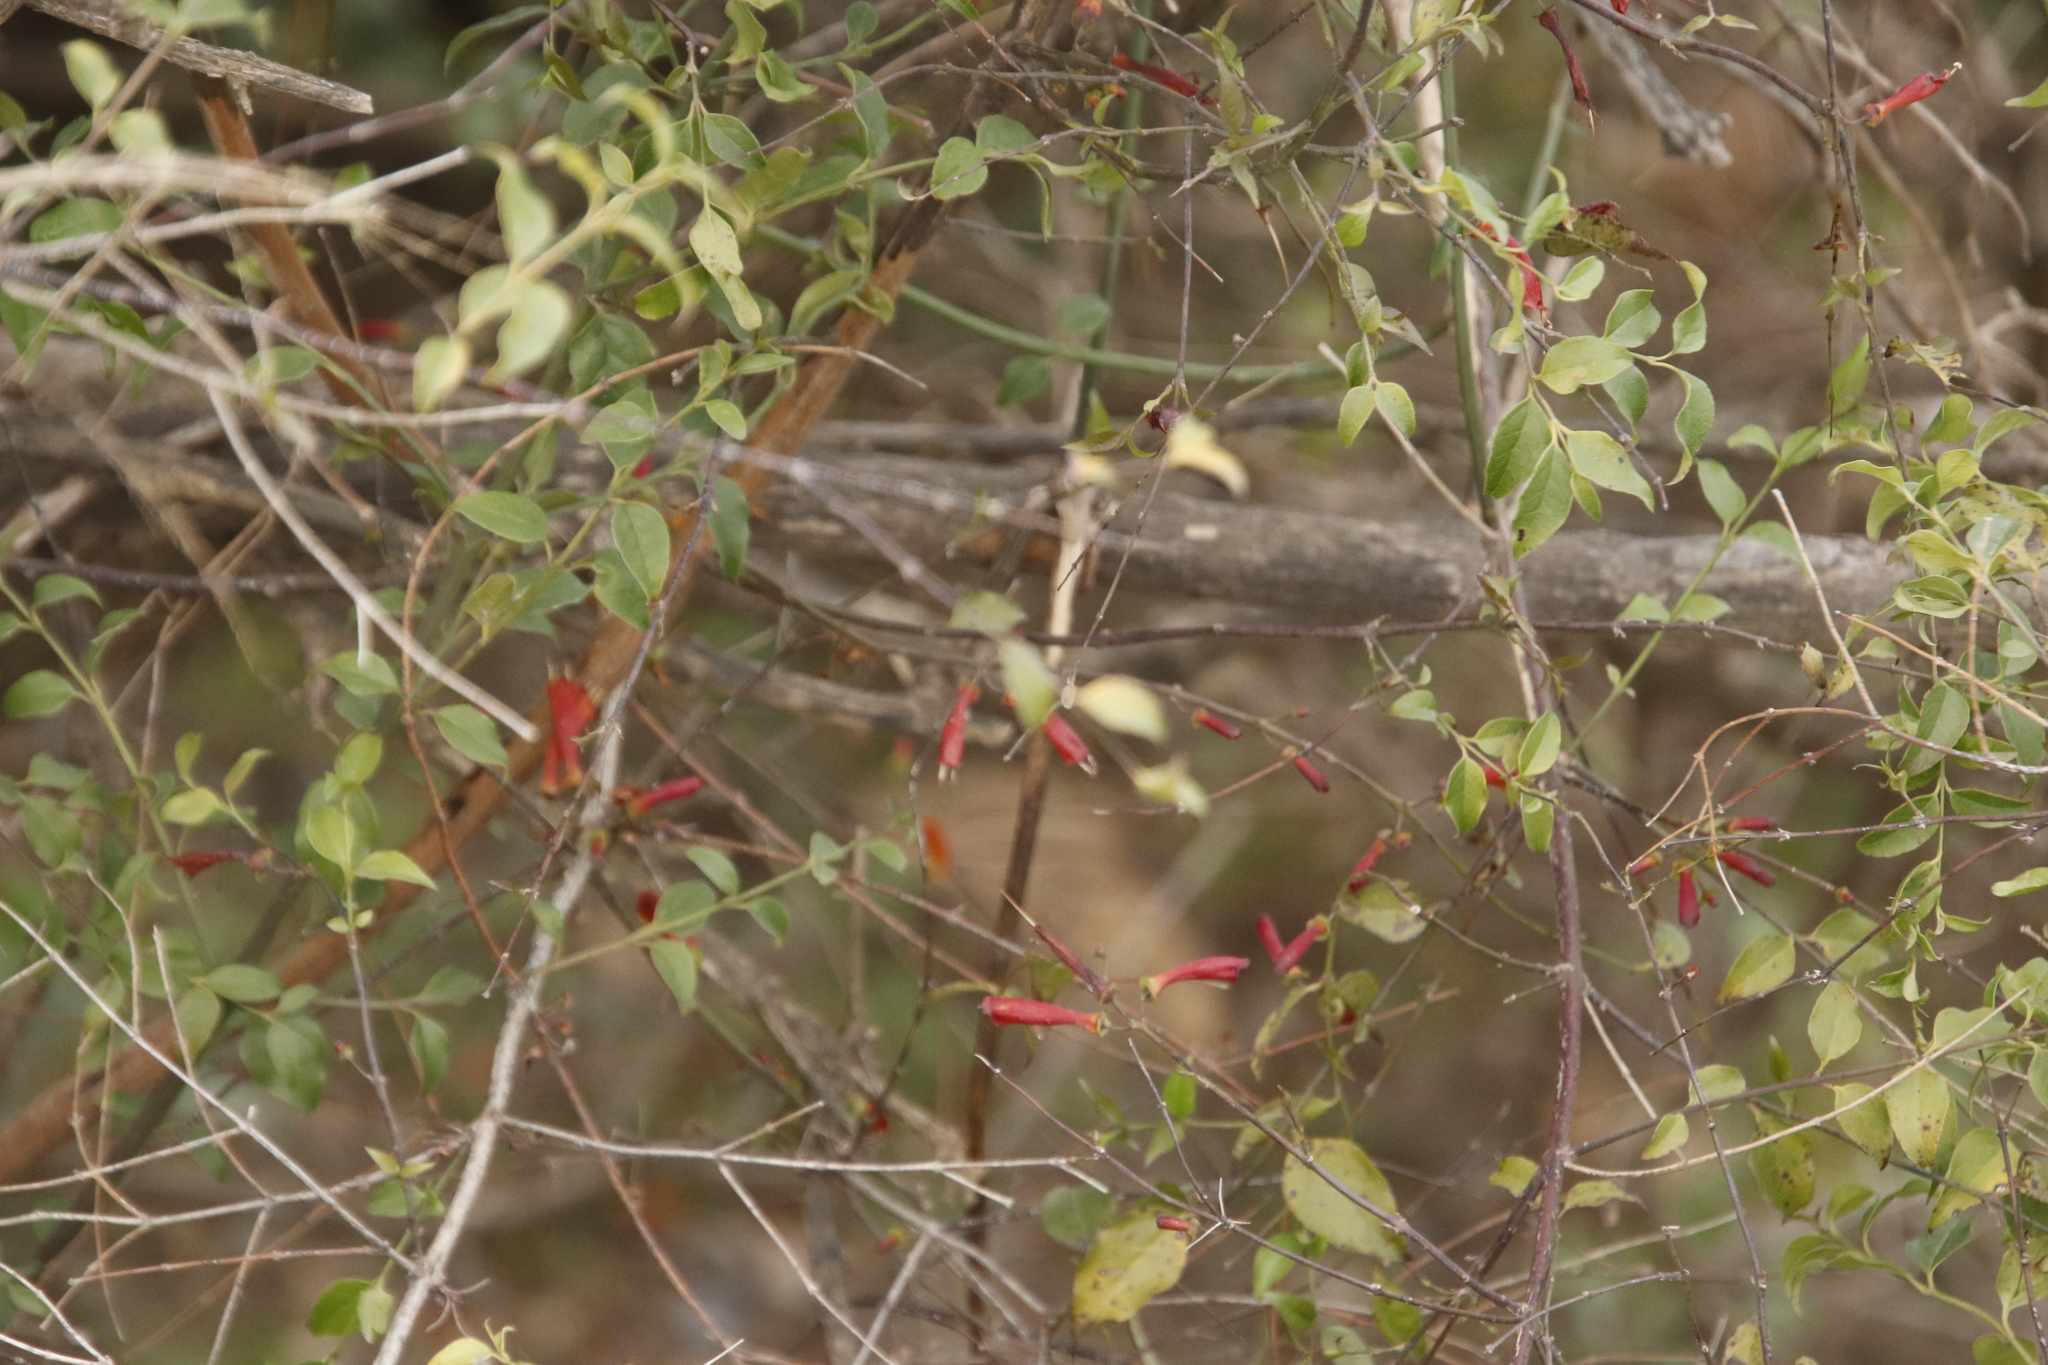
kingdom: Plantae
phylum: Tracheophyta
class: Magnoliopsida
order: Lamiales
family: Stilbaceae
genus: Halleria
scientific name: Halleria lucida
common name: Tree fuschia
